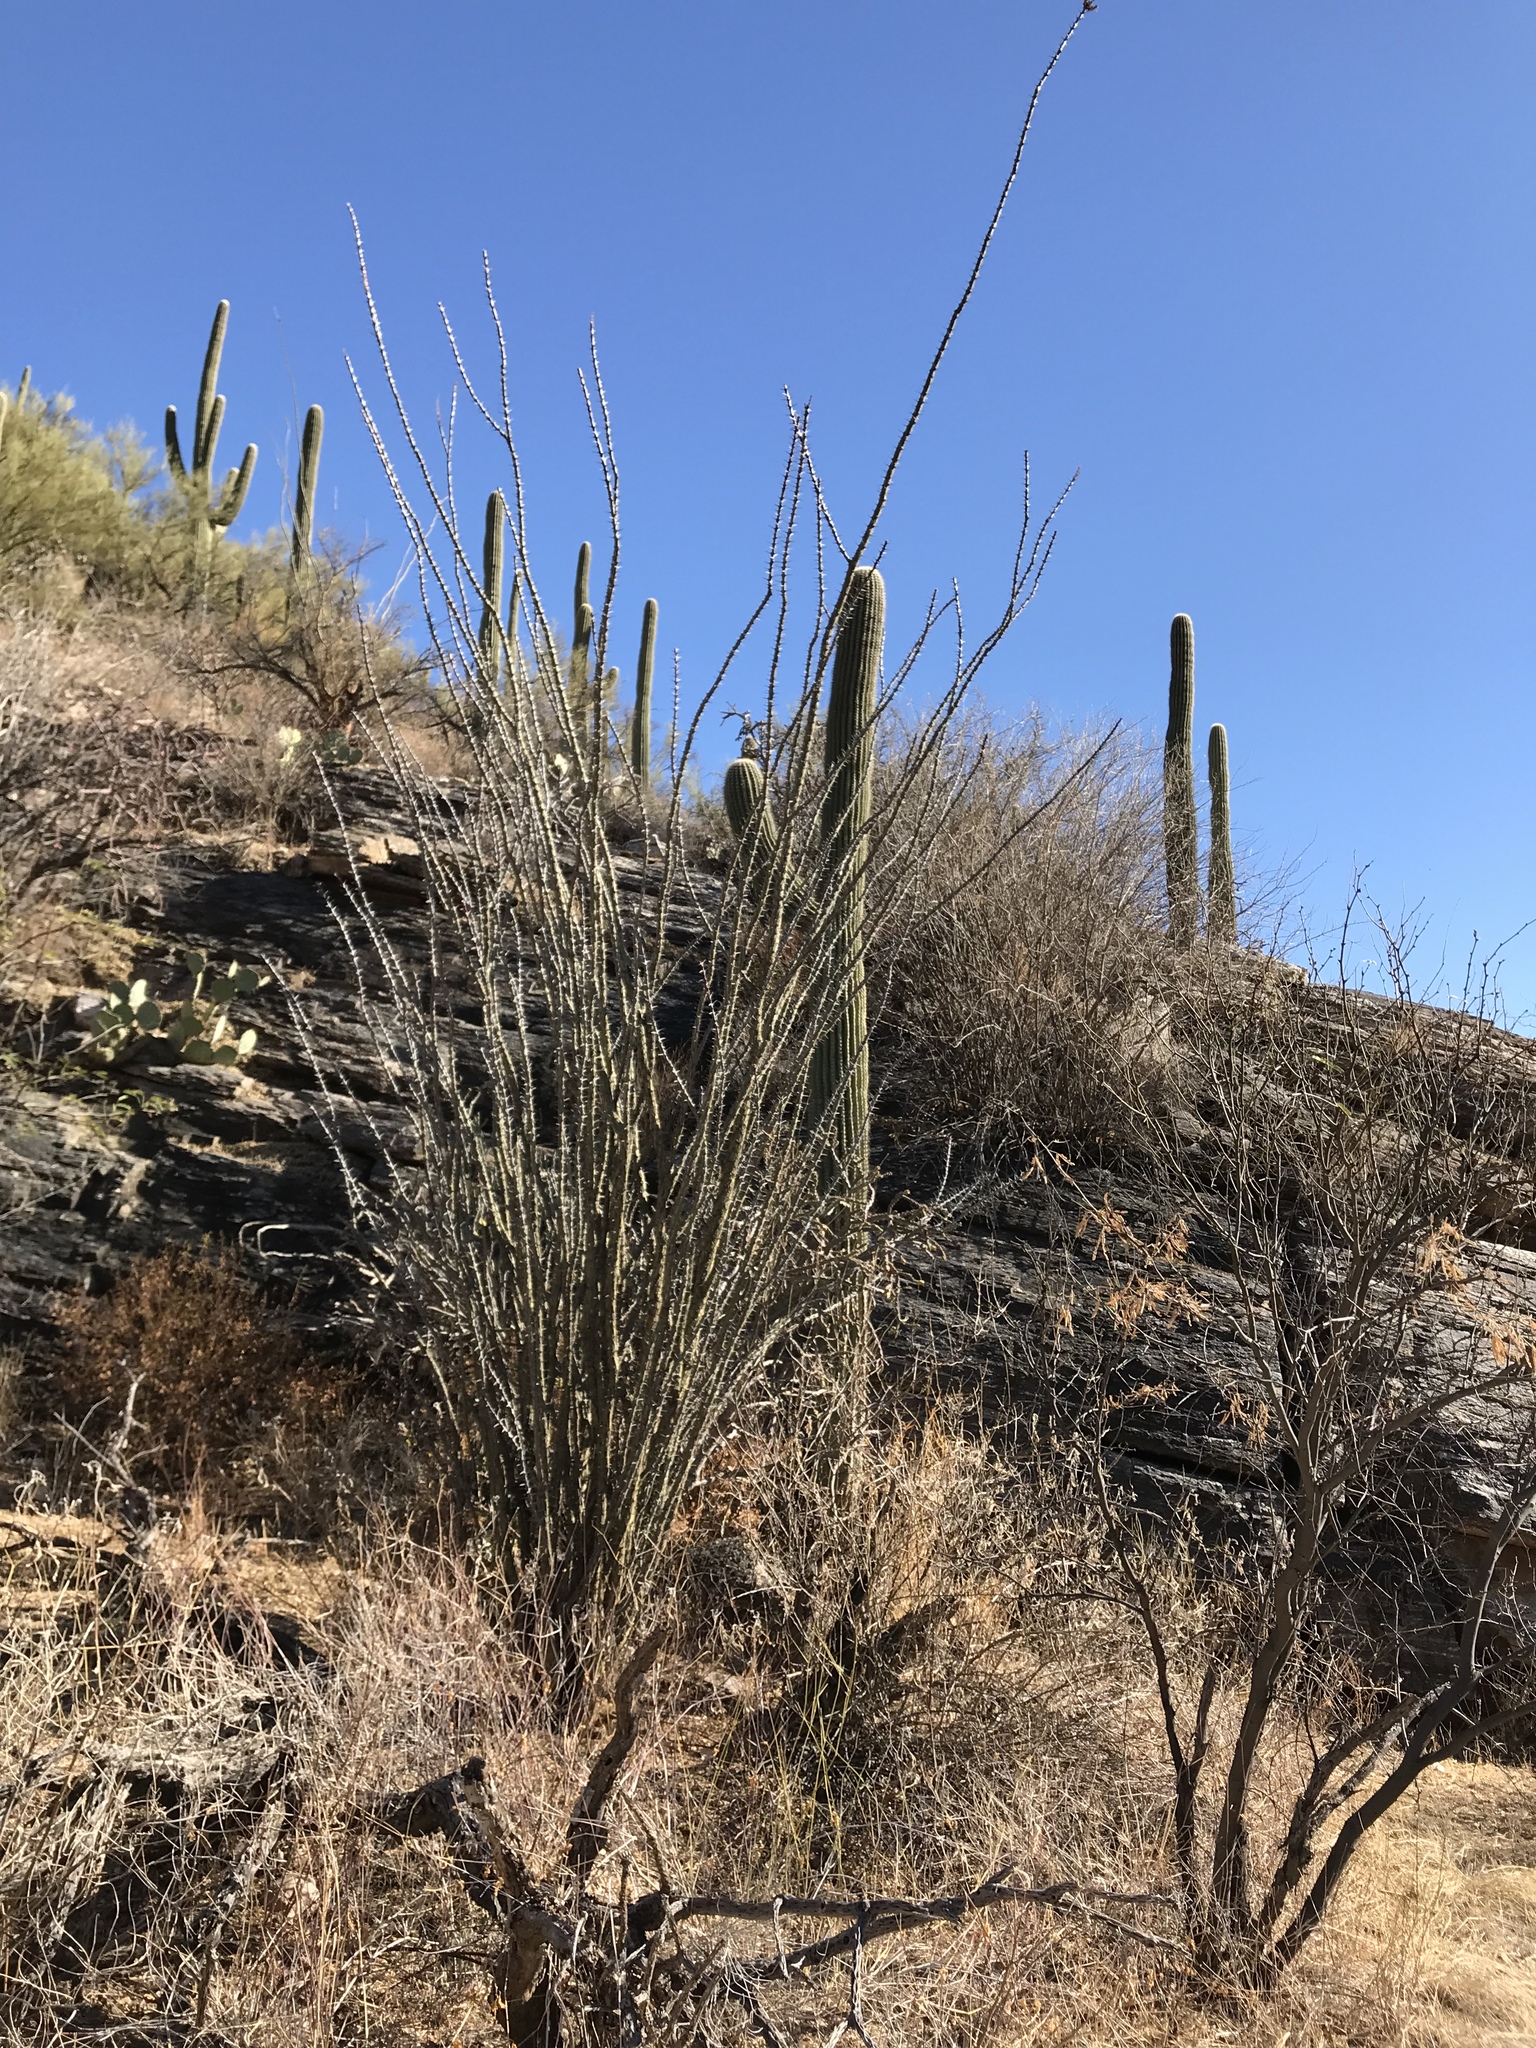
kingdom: Plantae
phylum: Tracheophyta
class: Magnoliopsida
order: Ericales
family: Fouquieriaceae
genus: Fouquieria
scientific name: Fouquieria splendens
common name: Vine-cactus
